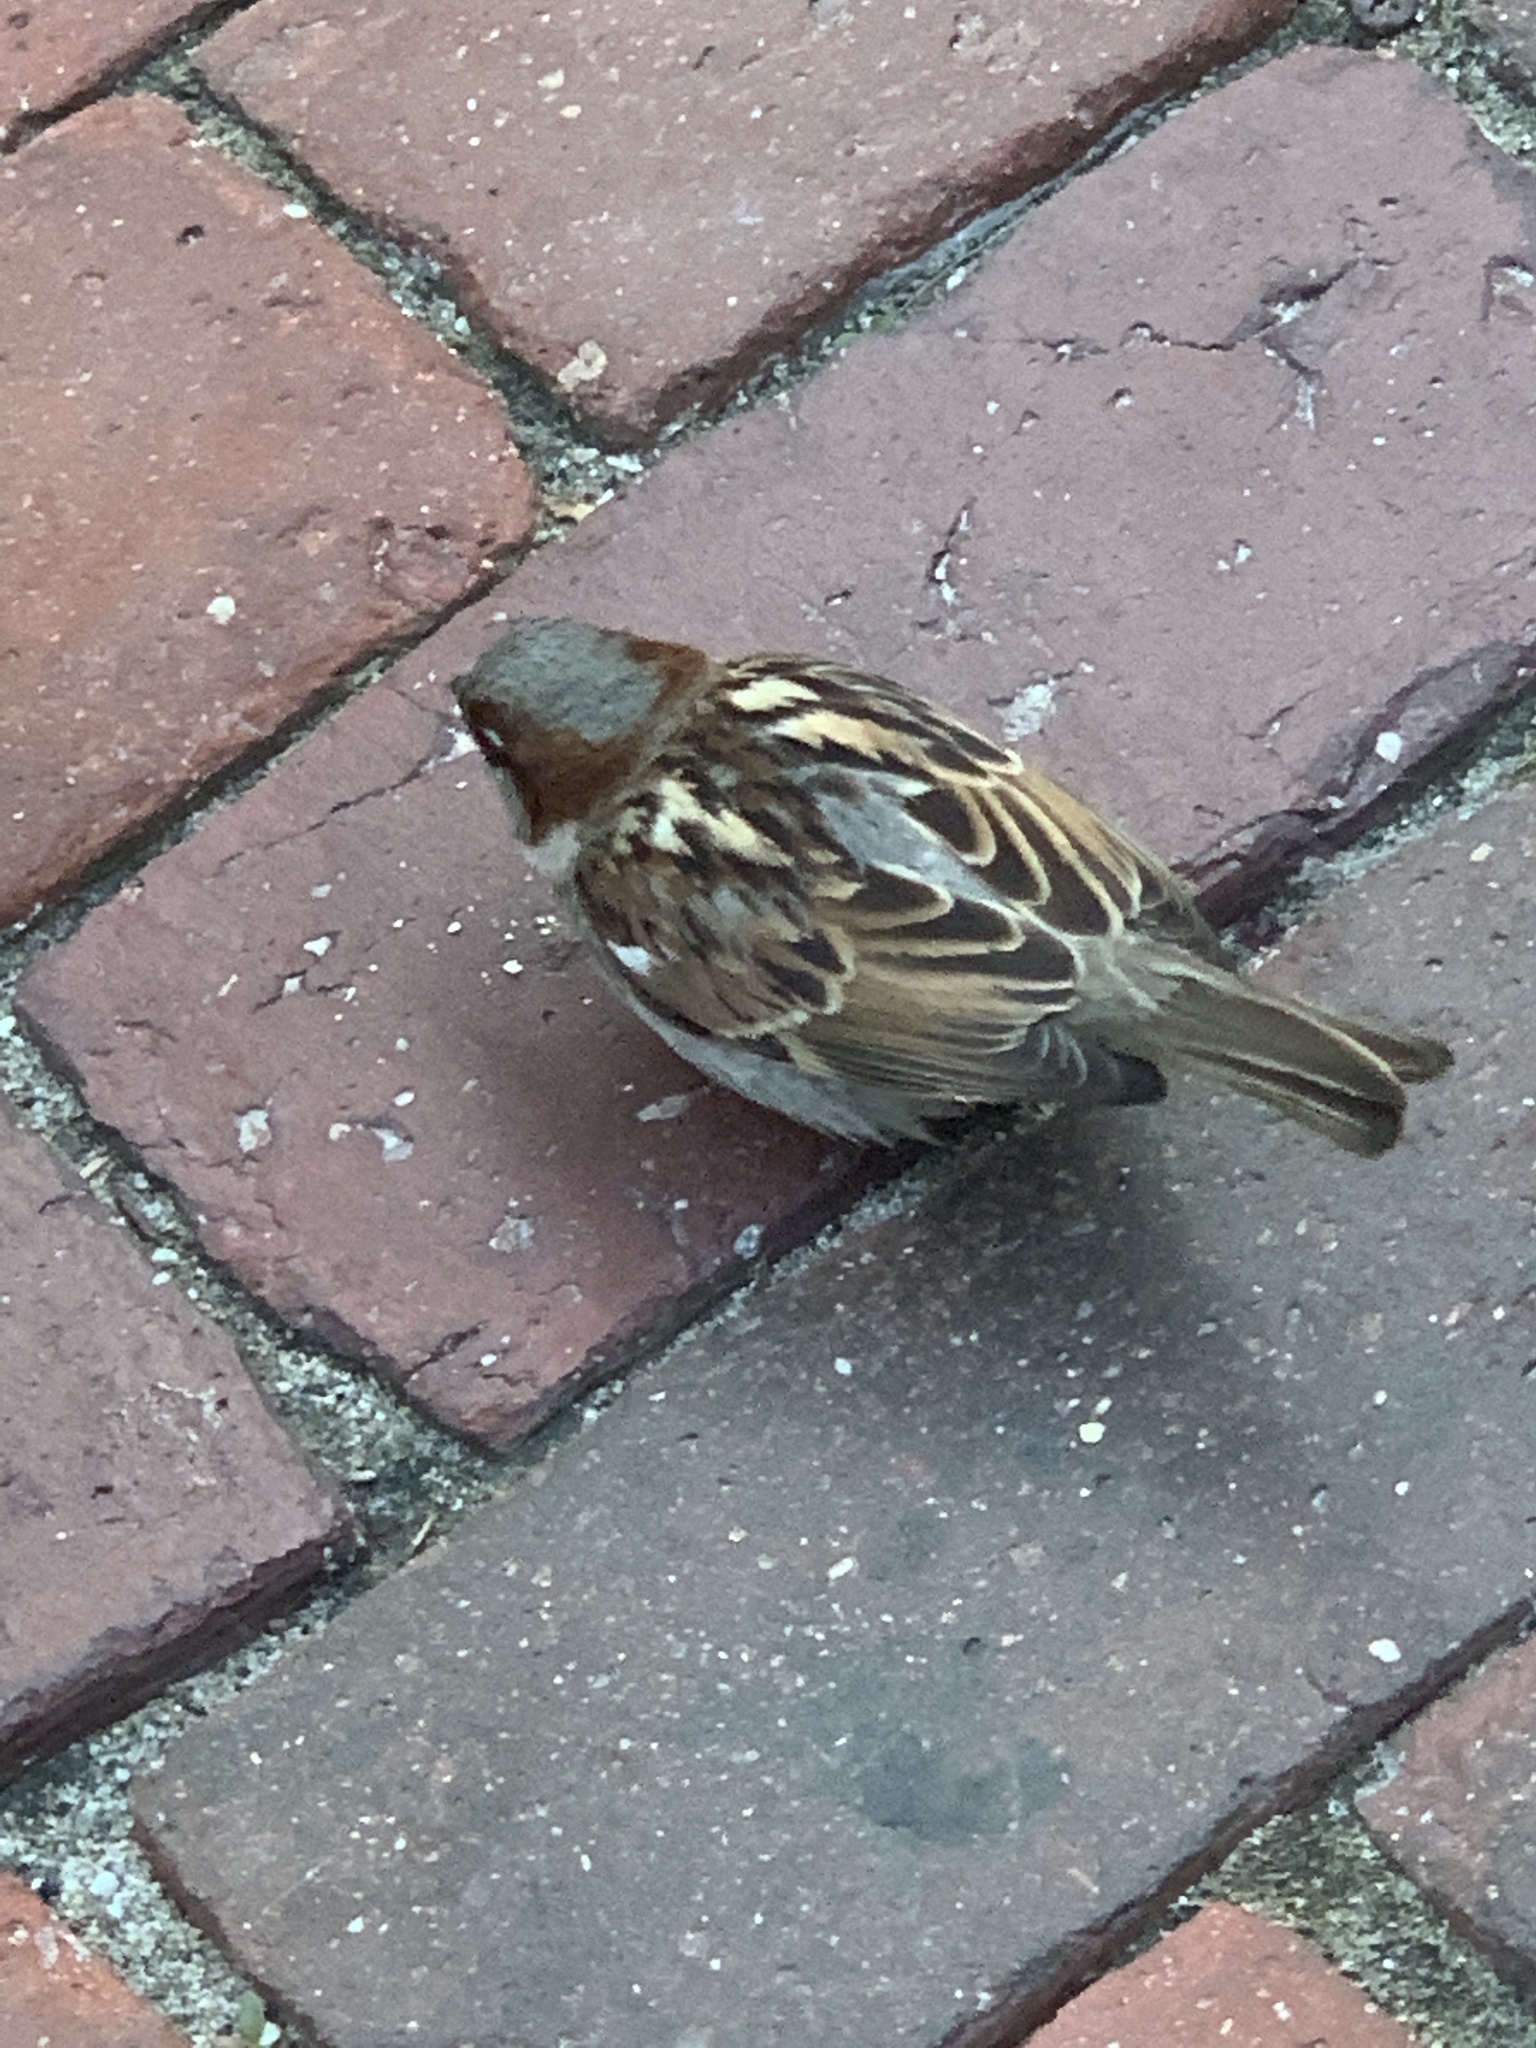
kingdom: Animalia
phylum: Chordata
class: Aves
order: Passeriformes
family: Passeridae
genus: Passer
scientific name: Passer domesticus
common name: House sparrow
